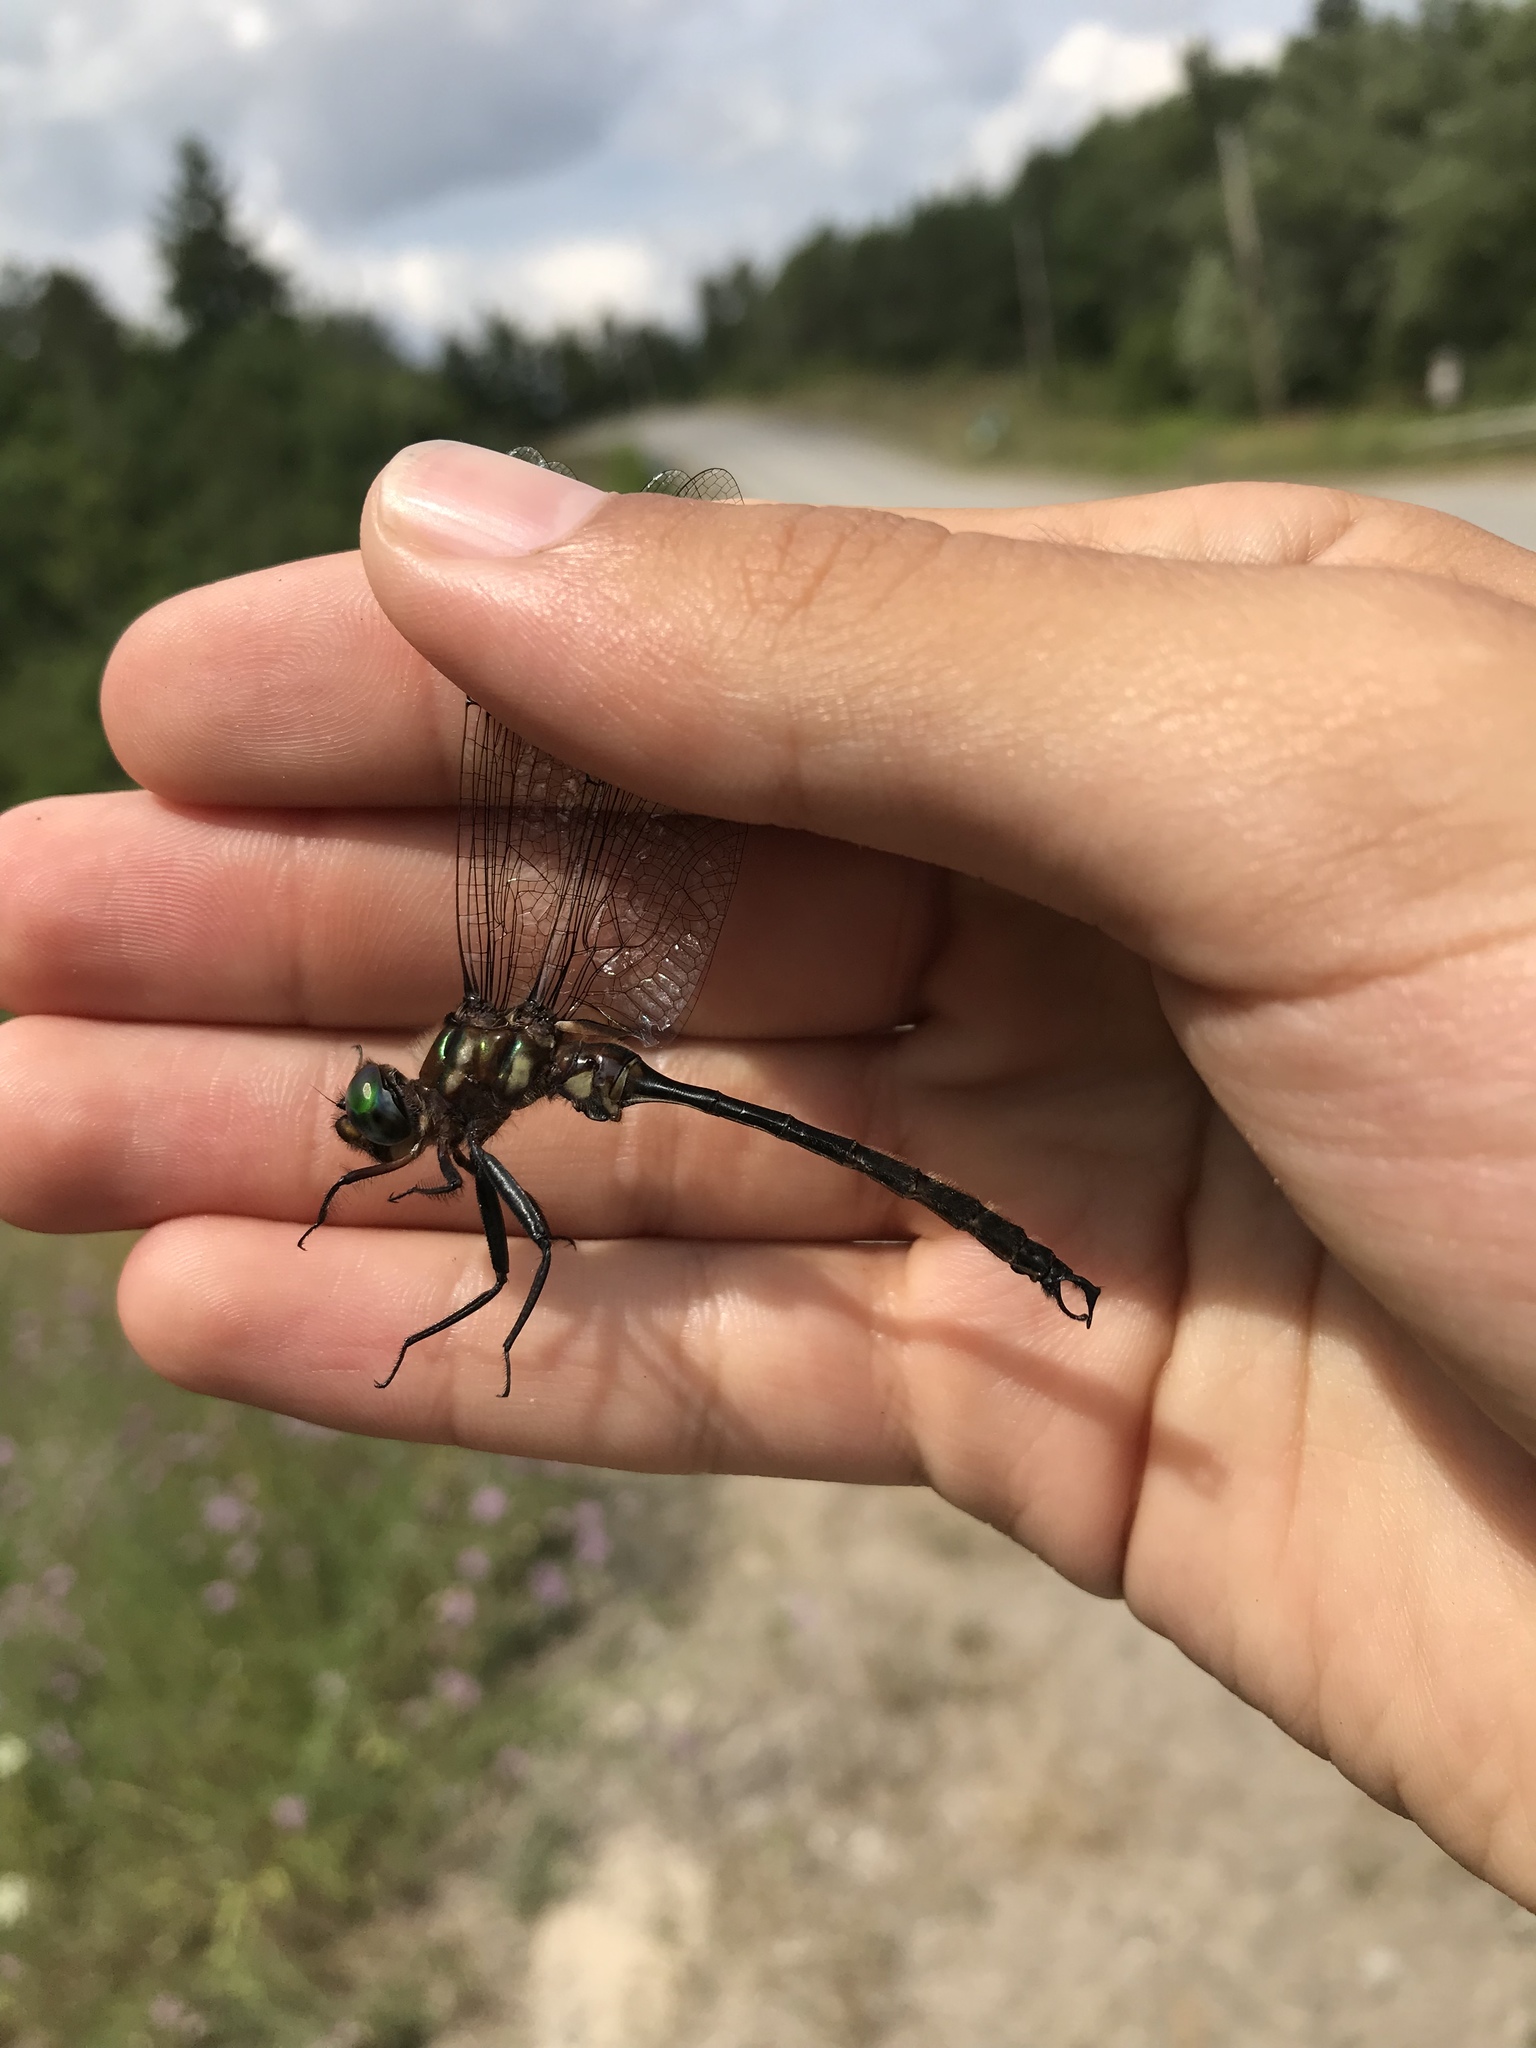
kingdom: Animalia
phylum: Arthropoda
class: Insecta
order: Odonata
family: Corduliidae
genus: Somatochlora
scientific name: Somatochlora tenebrosa
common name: Clamp-tipped emerald
